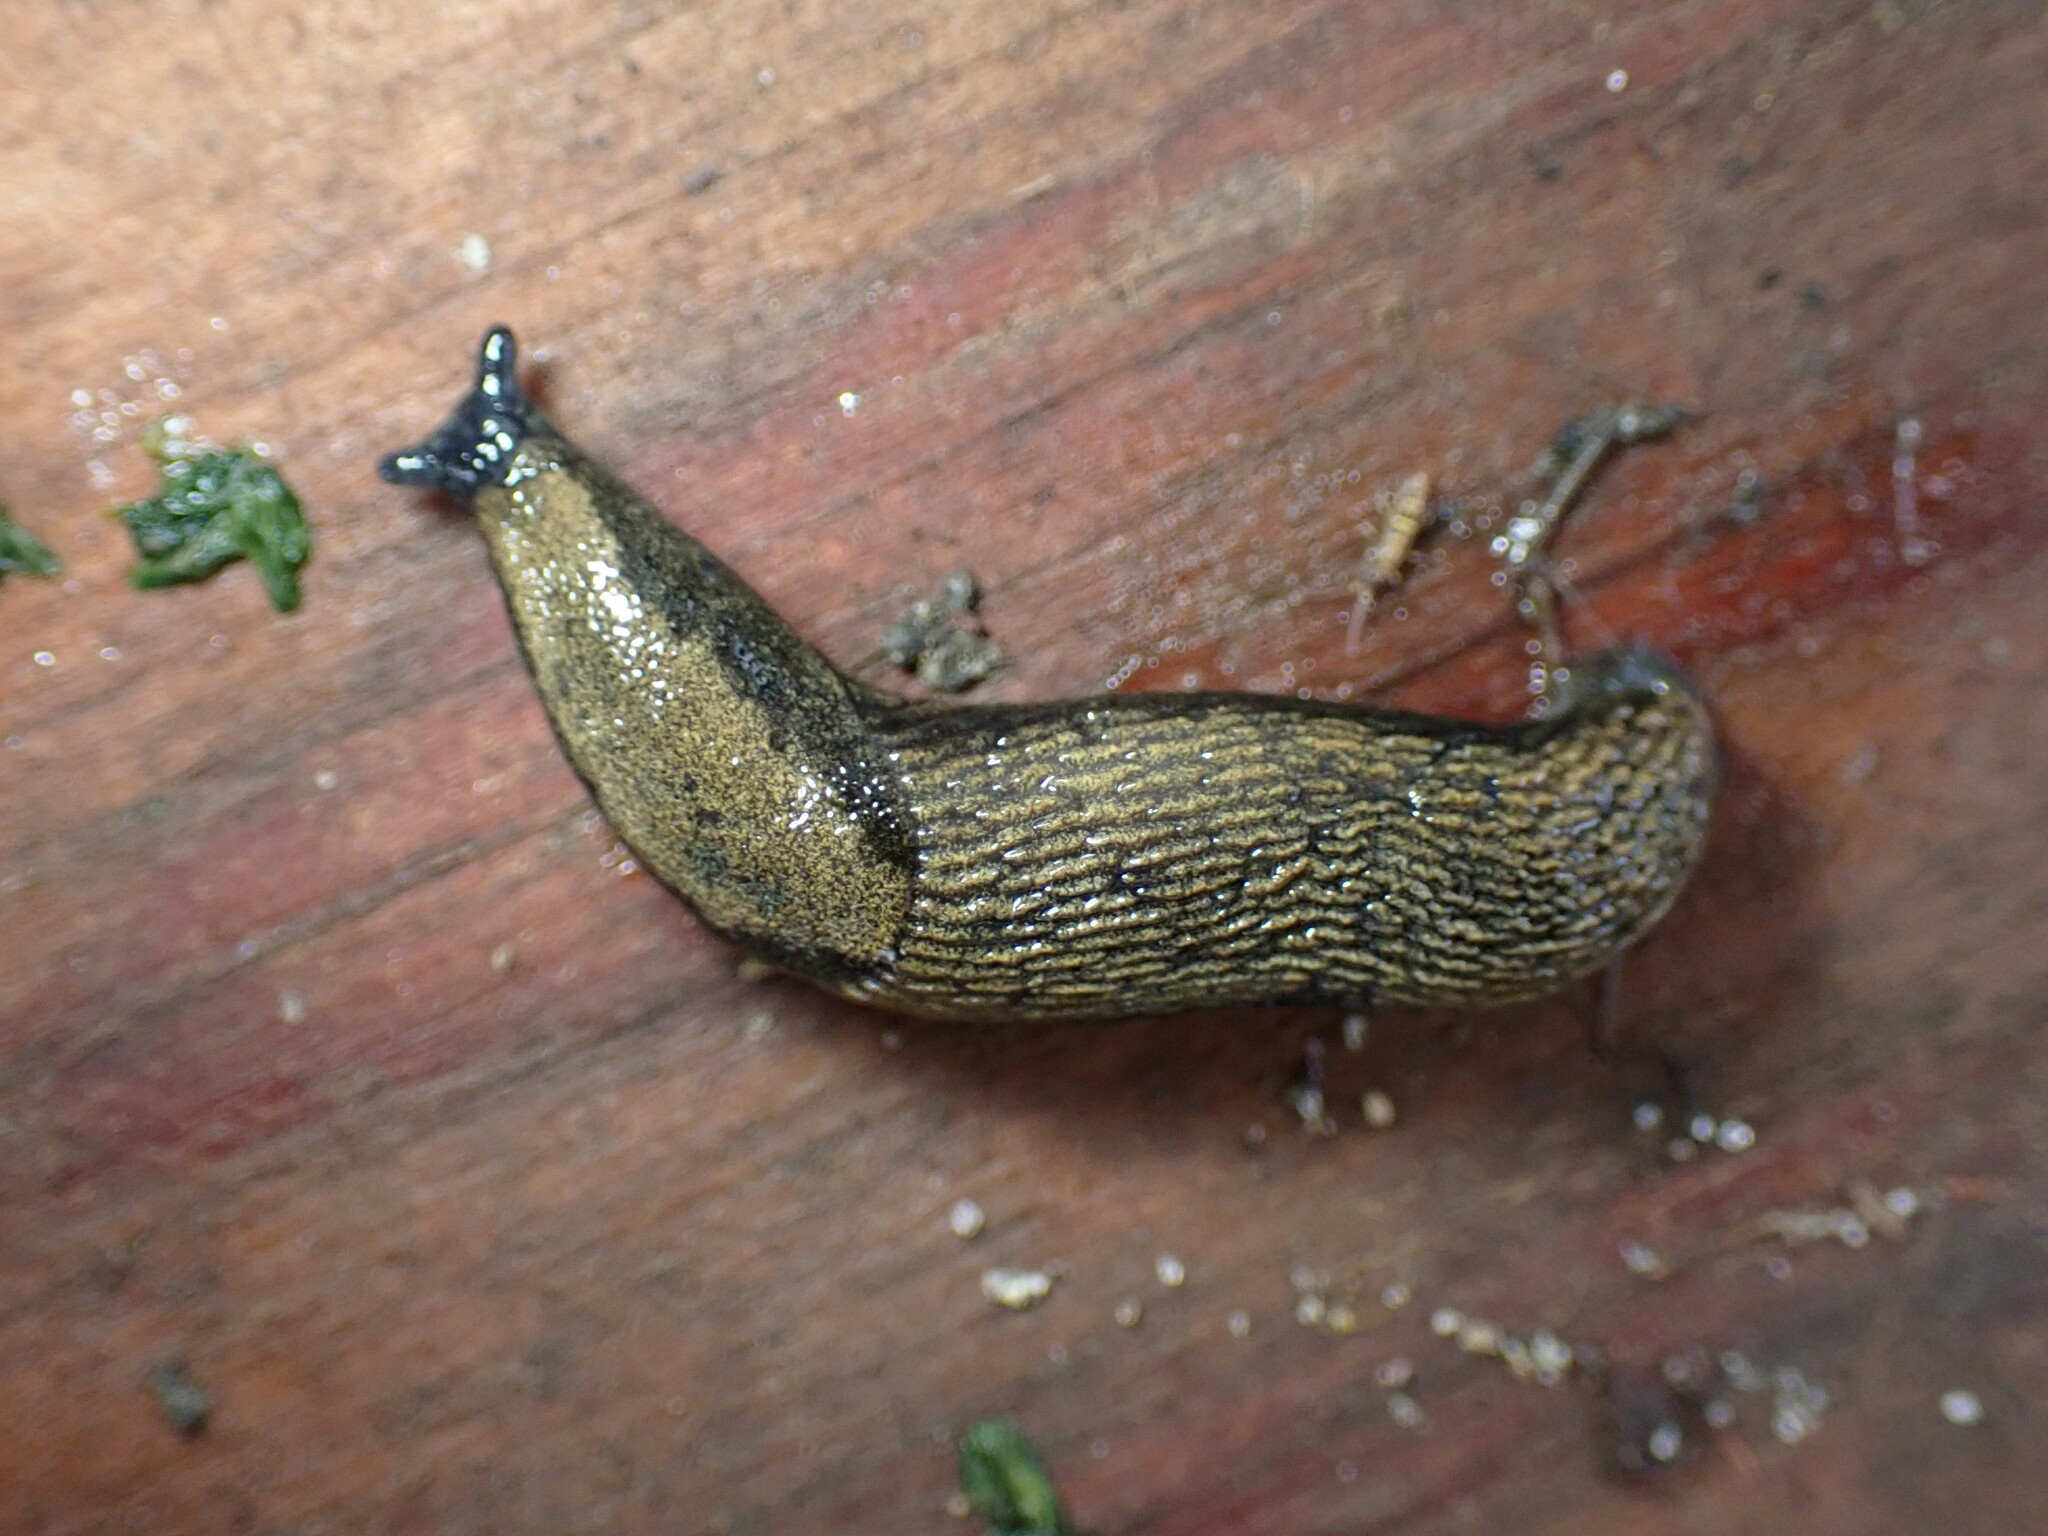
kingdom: Animalia
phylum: Mollusca
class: Gastropoda
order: Stylommatophora
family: Arionidae
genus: Arion
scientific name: Arion distinctus
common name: Darkface arion
